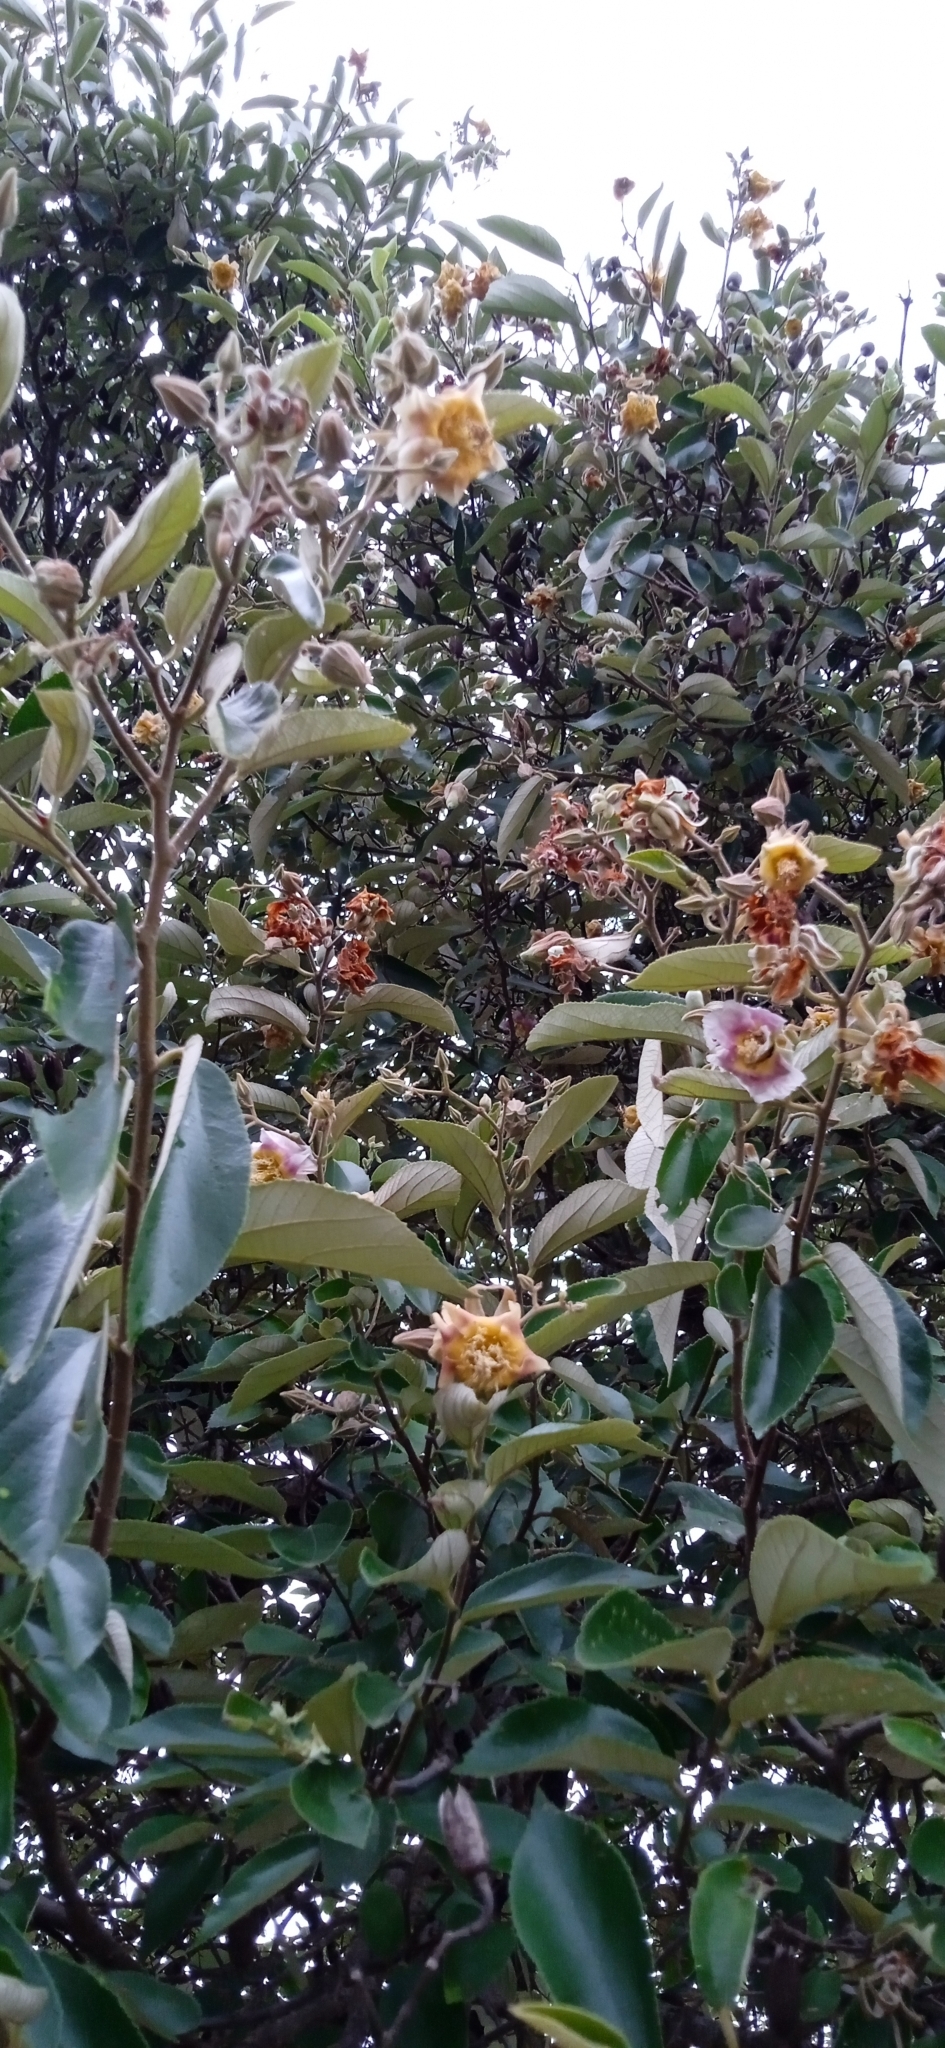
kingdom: Plantae
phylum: Tracheophyta
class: Magnoliopsida
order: Malvales
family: Malvaceae
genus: Luehea
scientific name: Luehea divaricata
